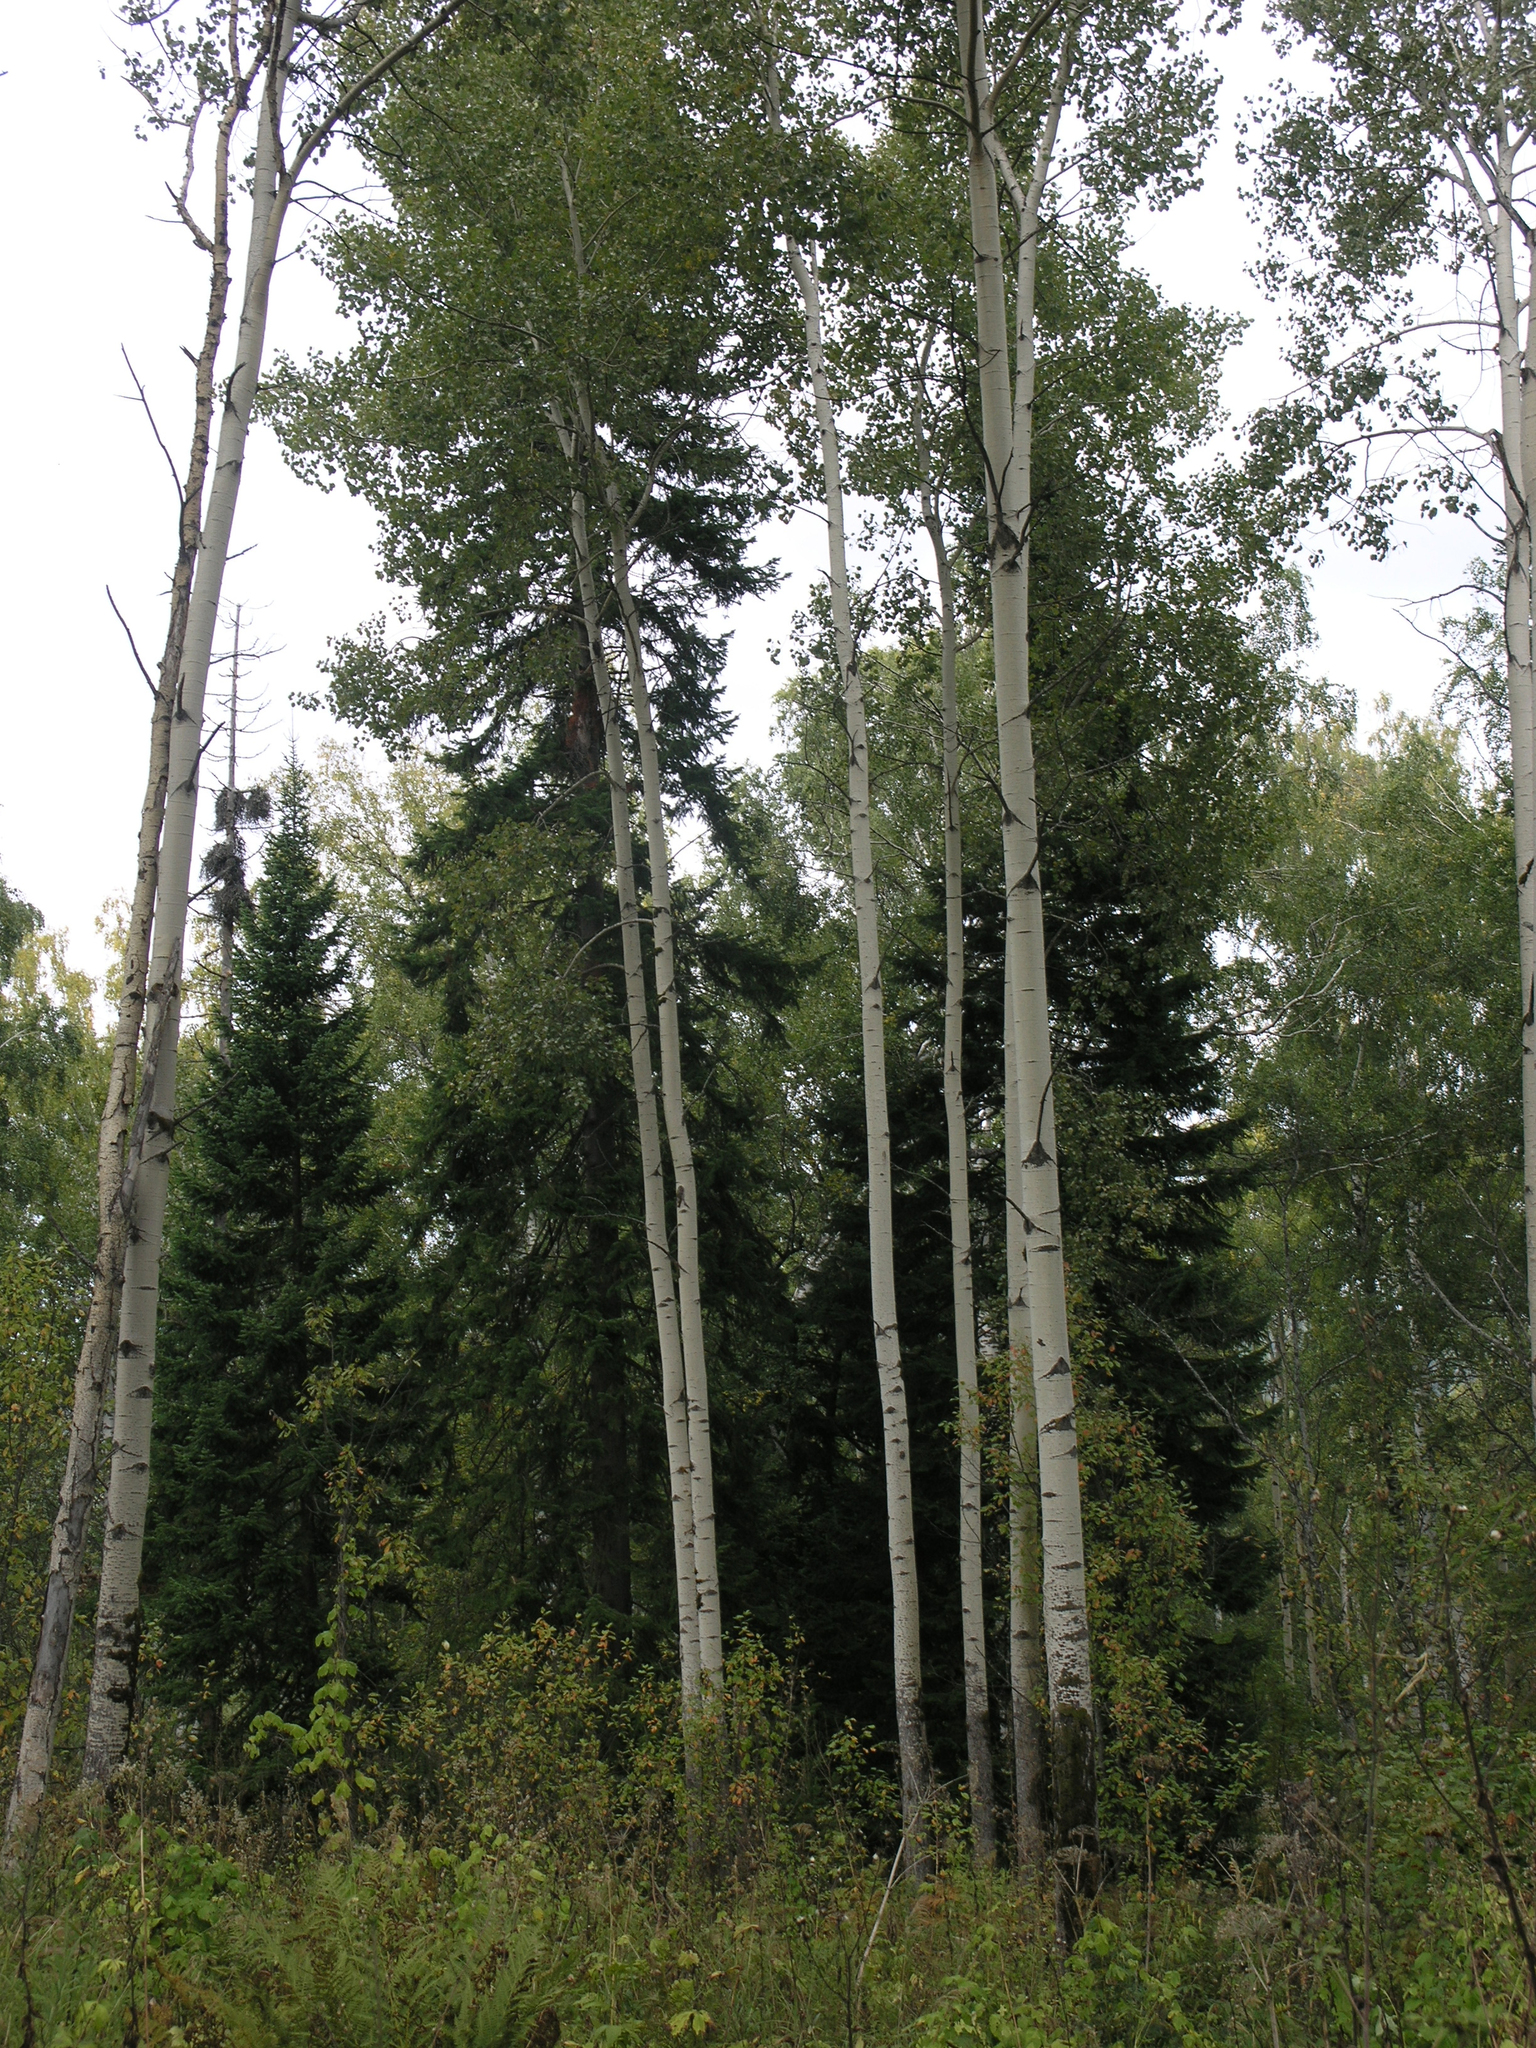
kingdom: Plantae
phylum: Tracheophyta
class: Pinopsida
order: Pinales
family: Pinaceae
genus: Abies
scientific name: Abies sibirica
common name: Siberian fir
